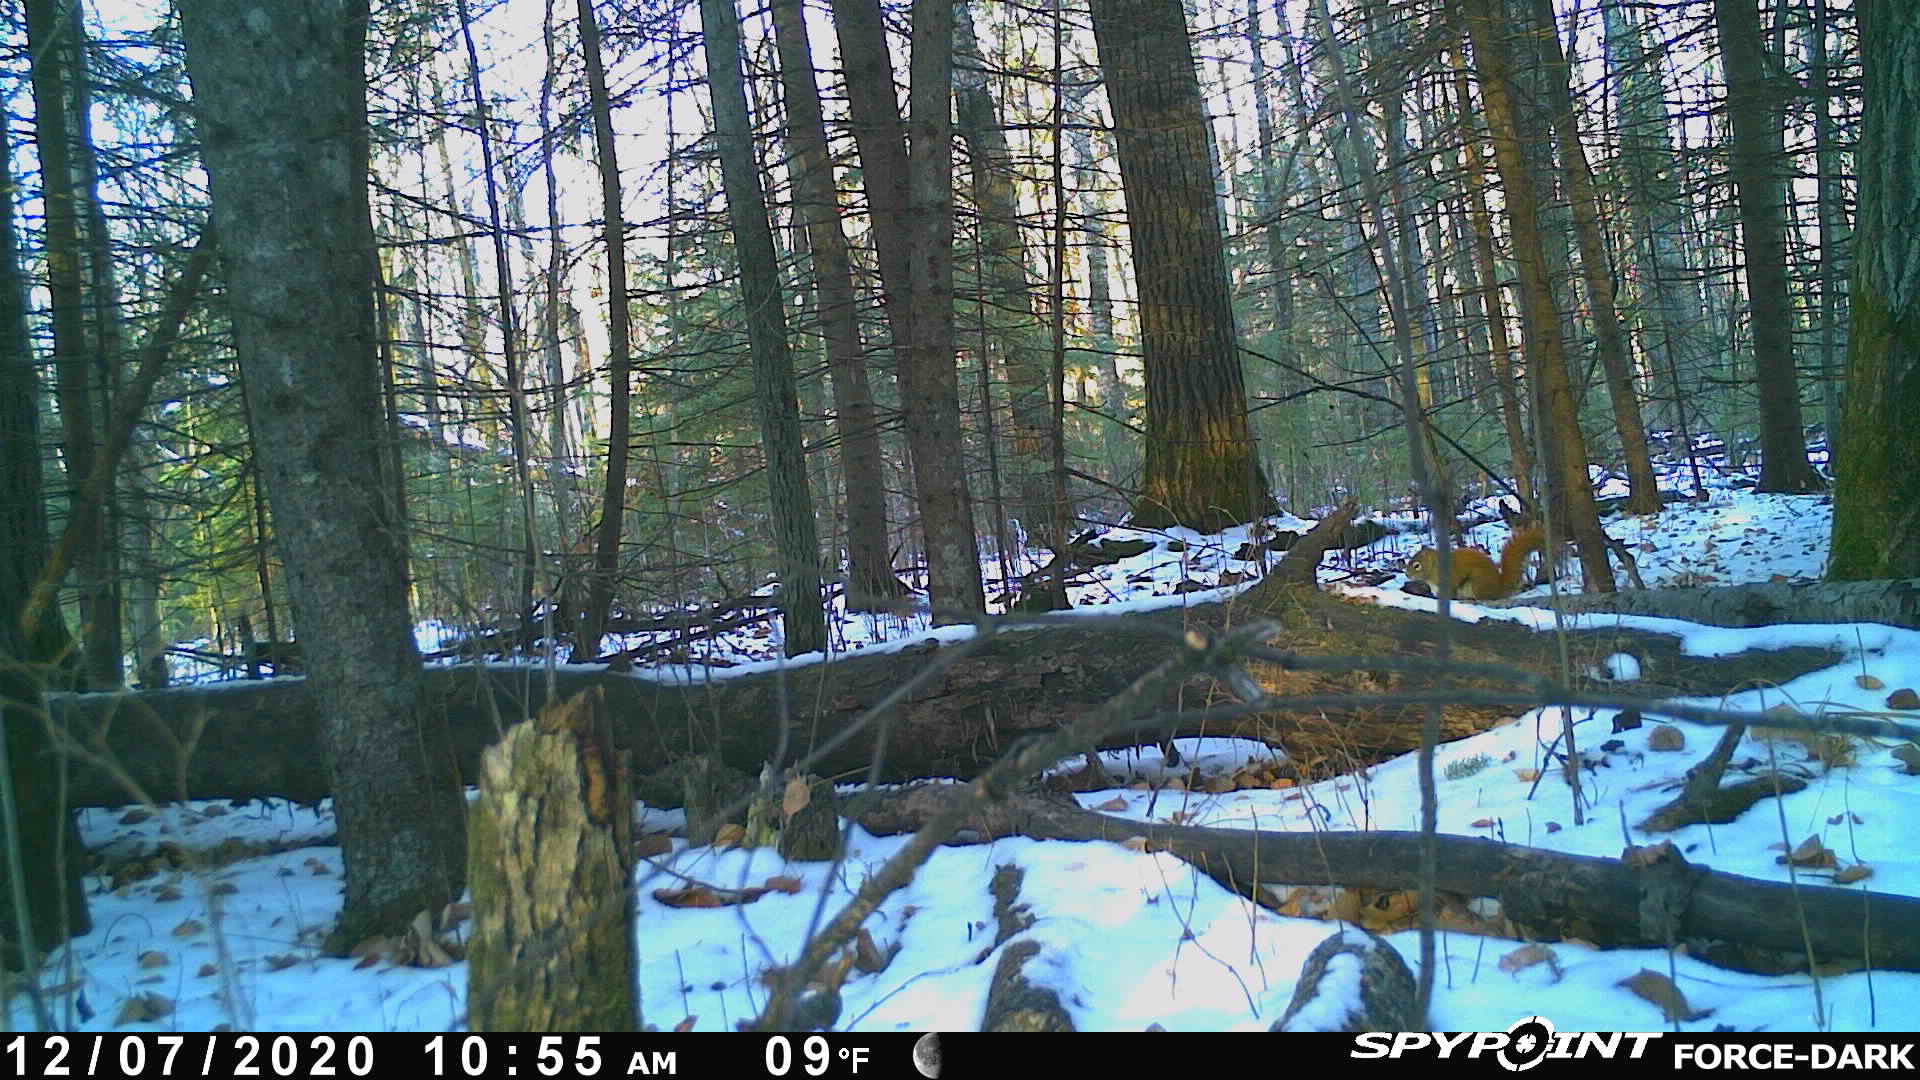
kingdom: Animalia
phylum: Chordata
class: Mammalia
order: Rodentia
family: Sciuridae
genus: Tamiasciurus
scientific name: Tamiasciurus hudsonicus
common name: Red squirrel
